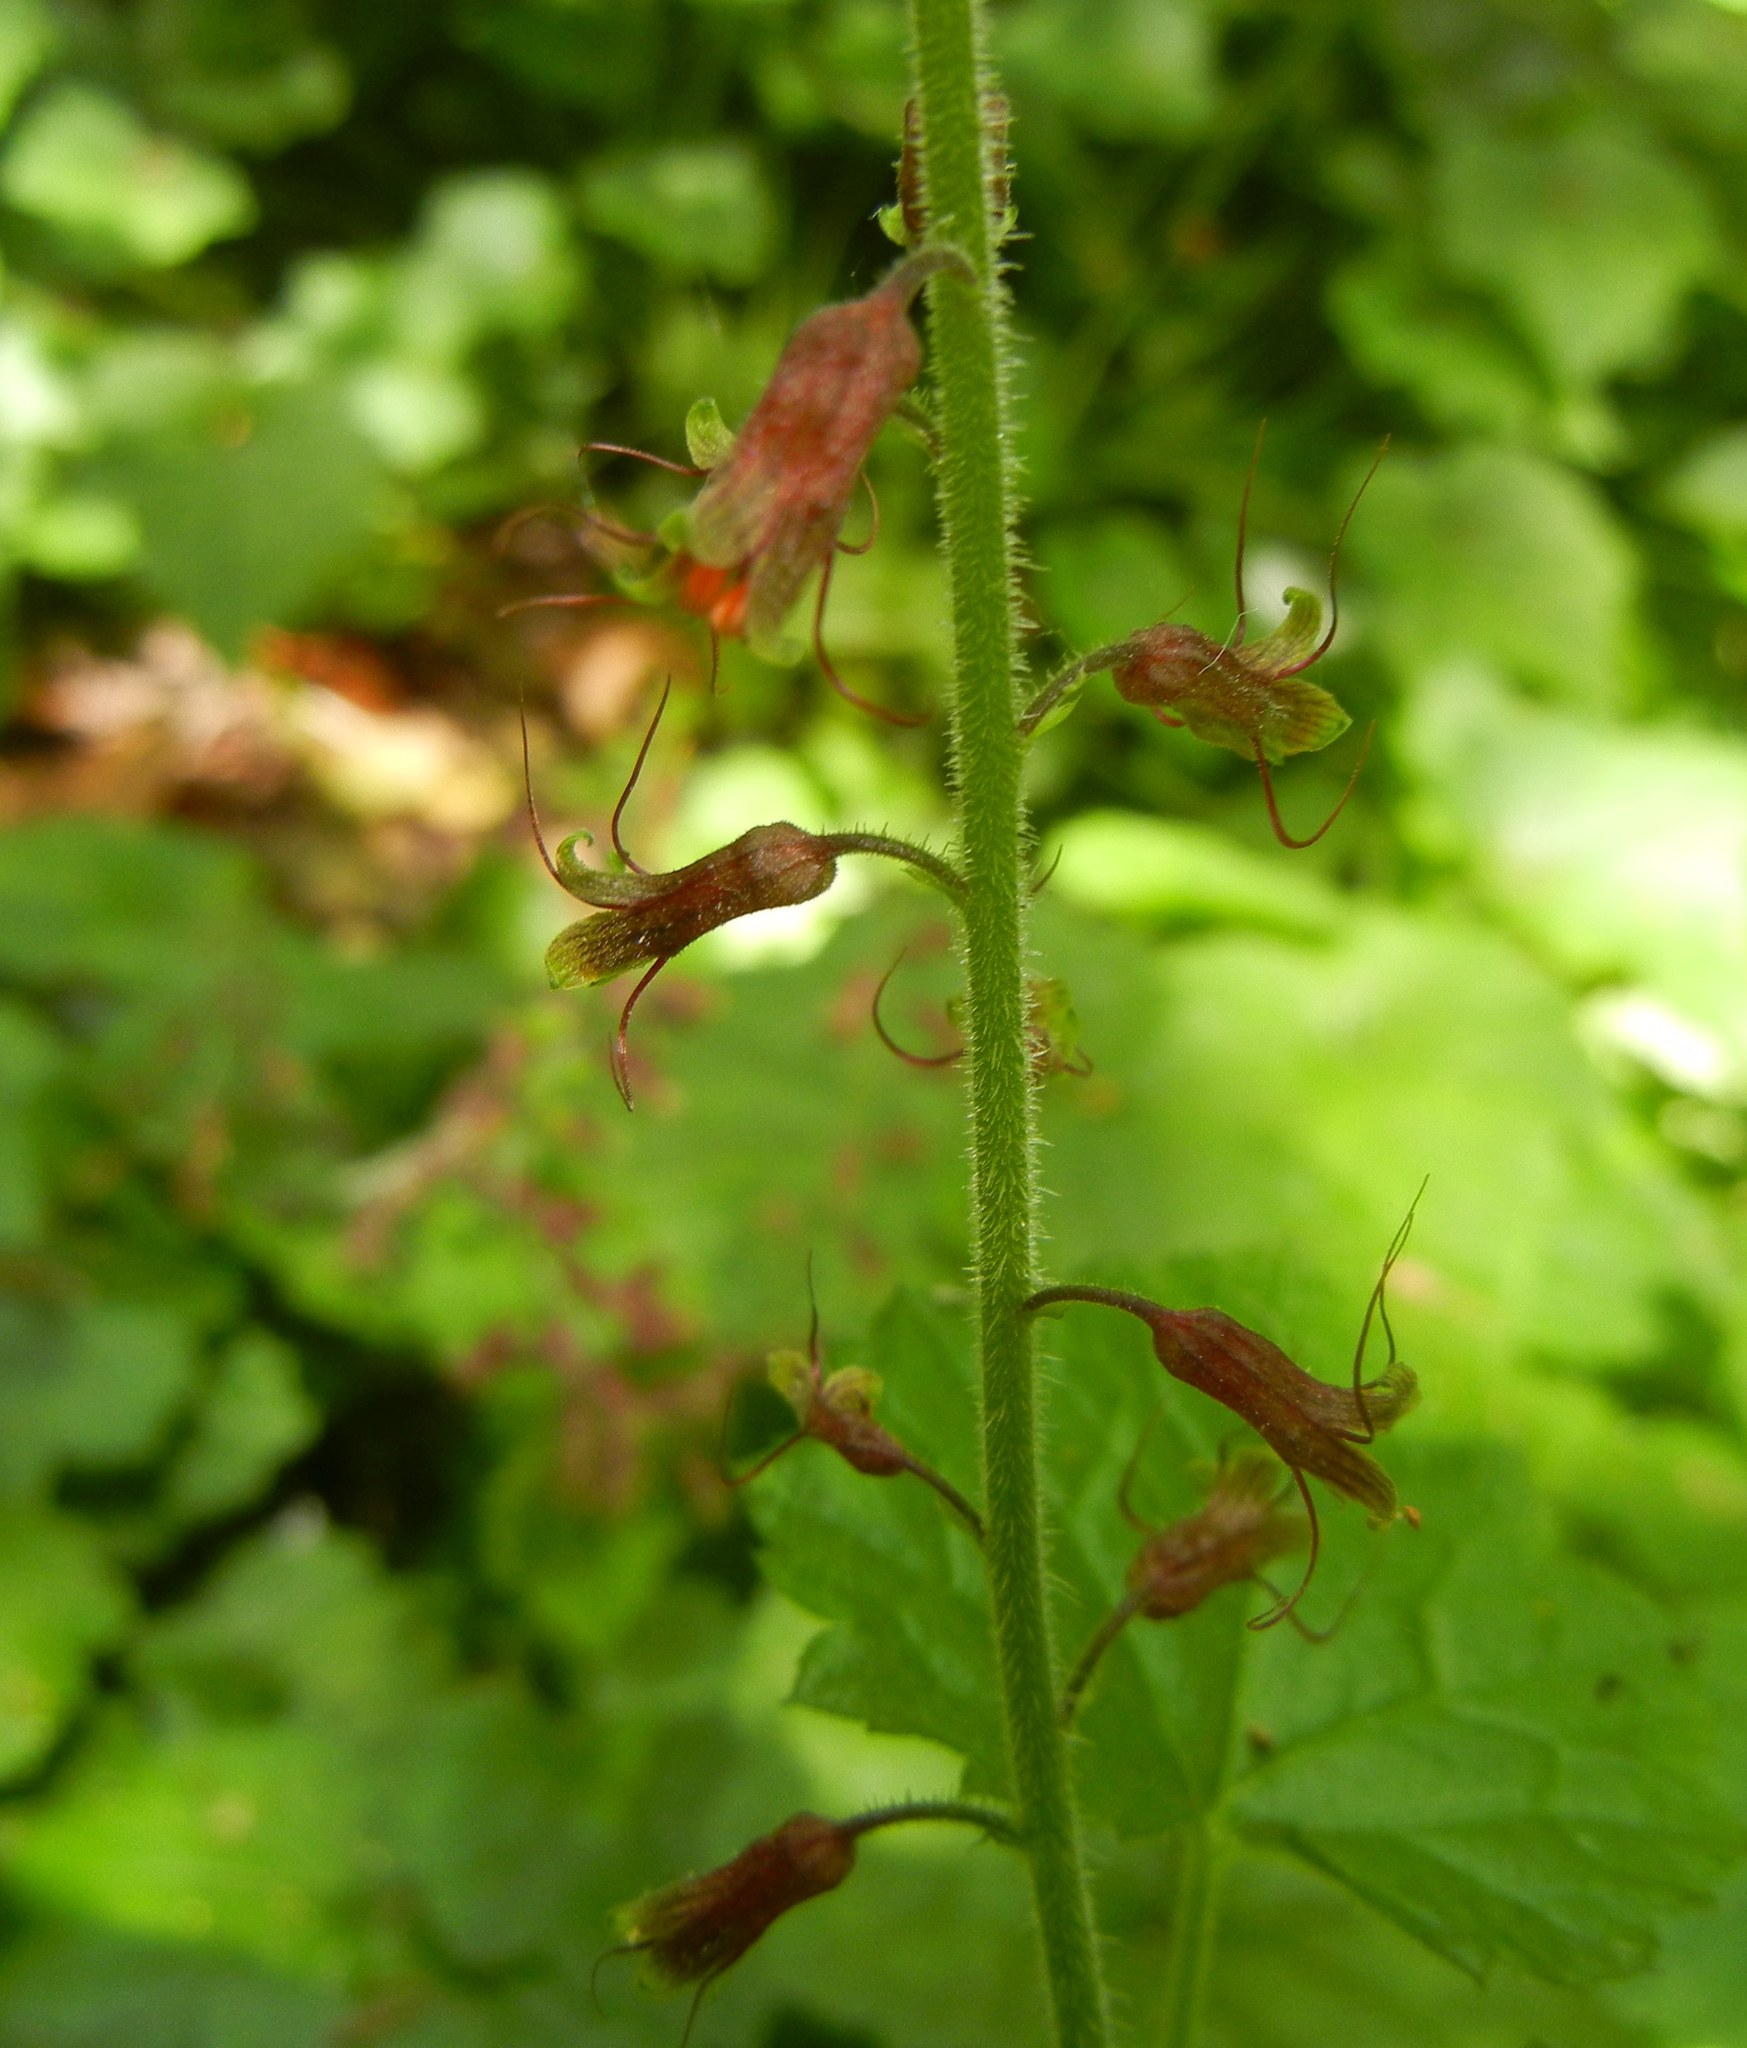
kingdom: Plantae
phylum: Tracheophyta
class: Magnoliopsida
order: Saxifragales
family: Saxifragaceae
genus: Tolmiea
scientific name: Tolmiea menziesii
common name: Pick-a-back-plant
